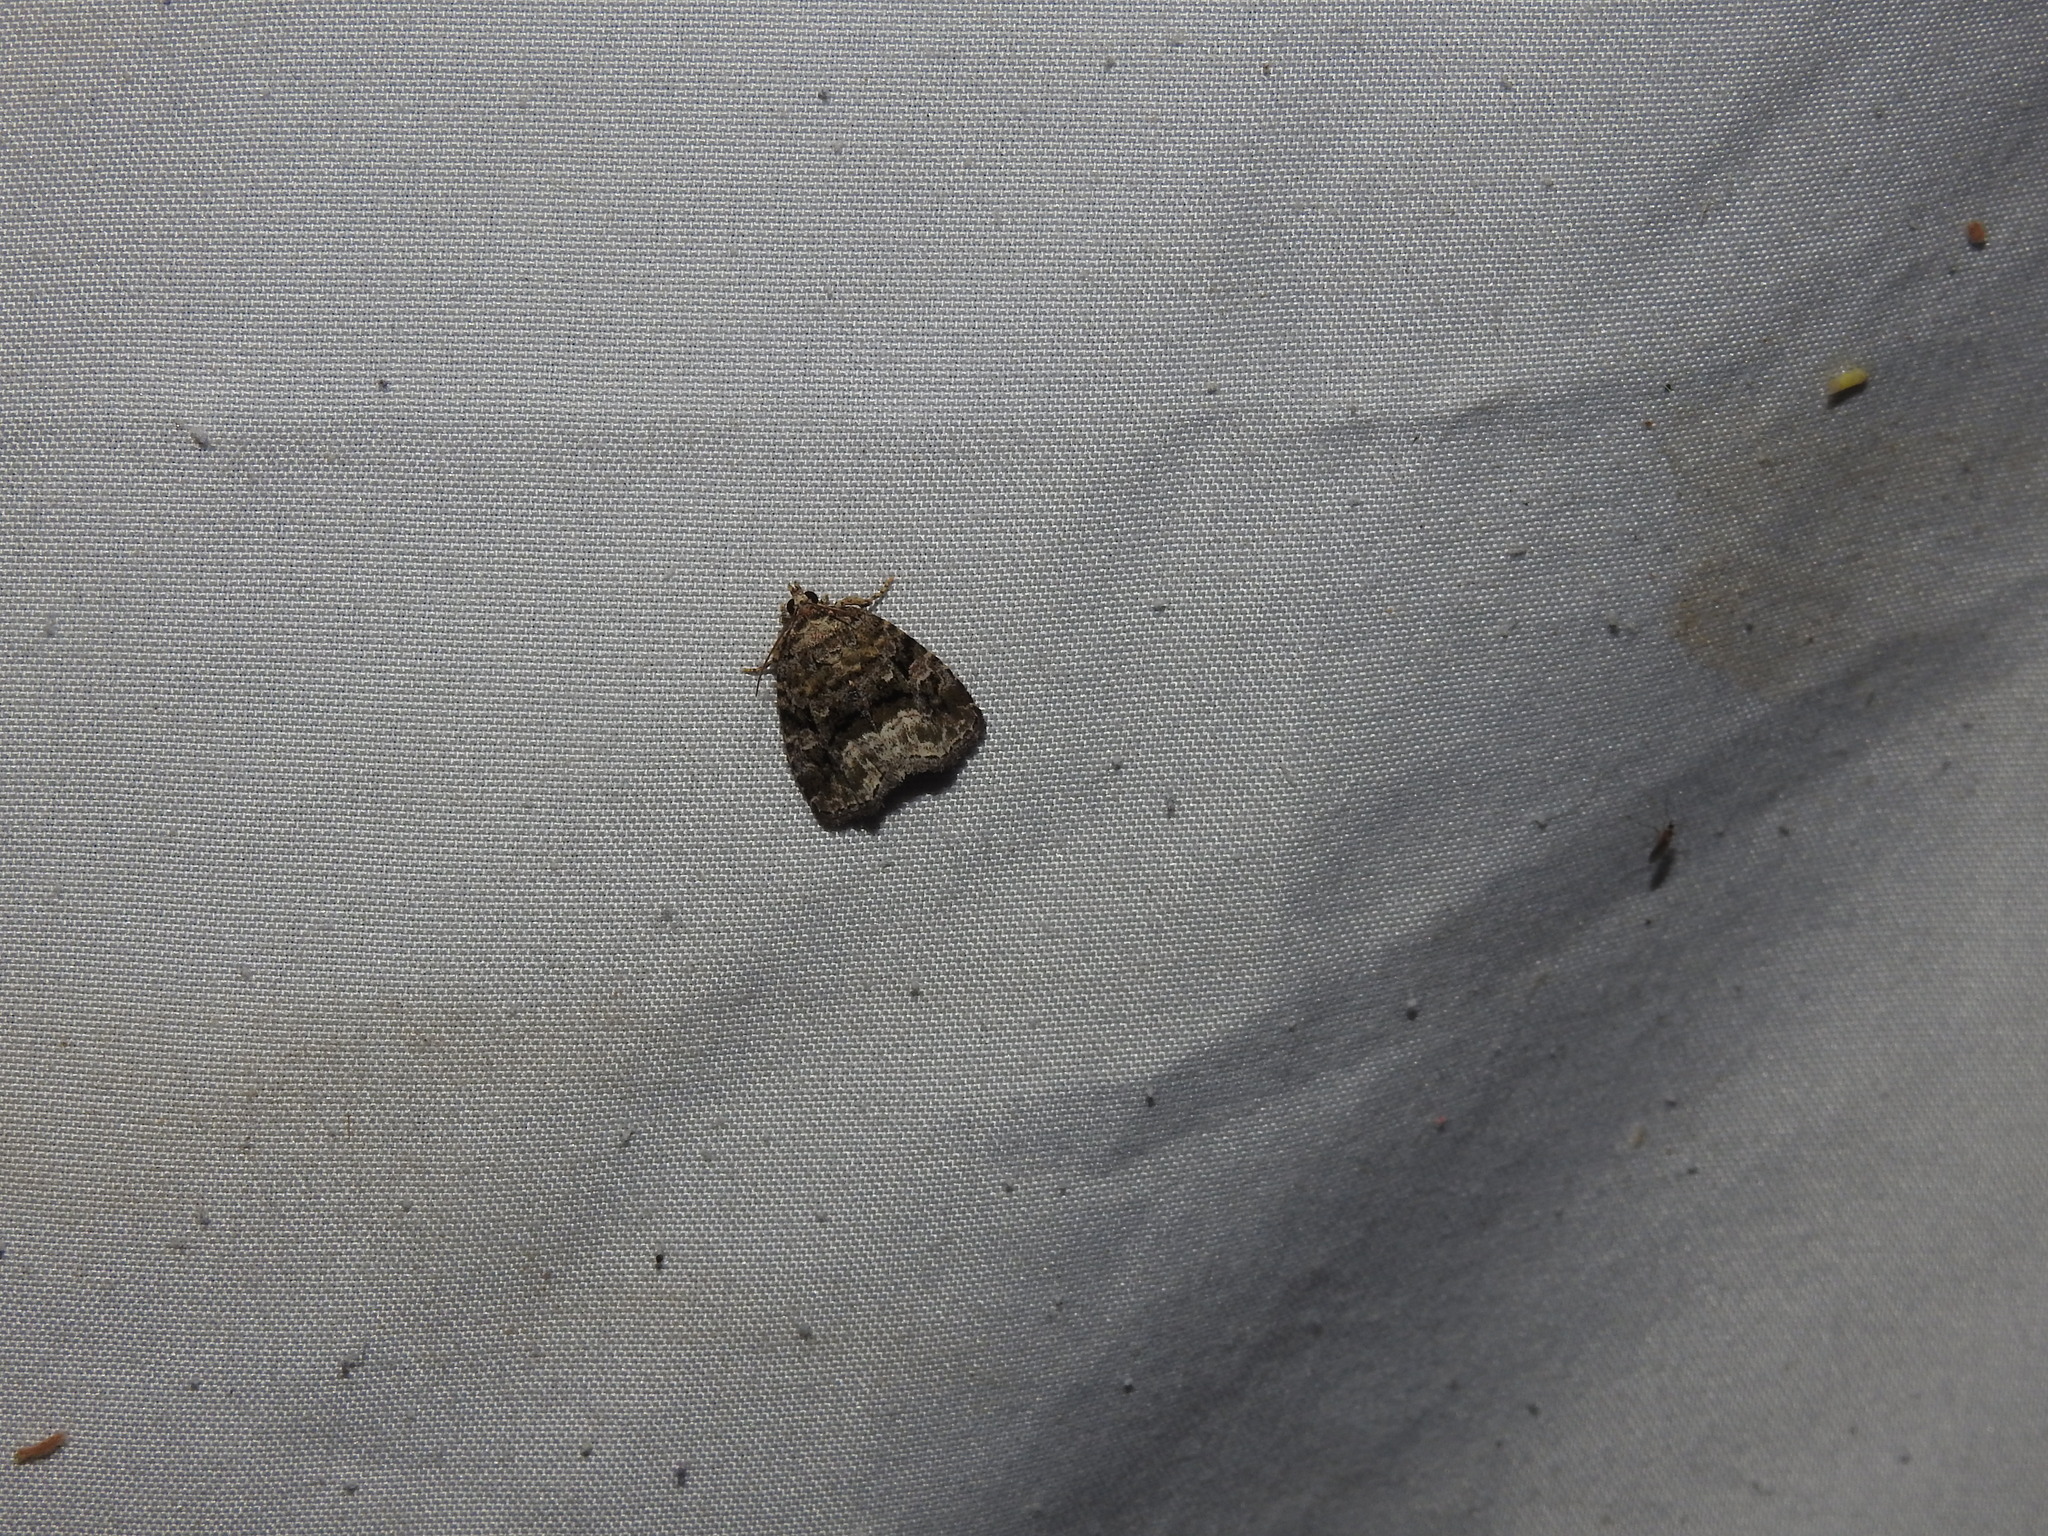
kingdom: Animalia
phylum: Arthropoda
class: Insecta
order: Lepidoptera
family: Noctuidae
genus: Protodeltote
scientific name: Protodeltote muscosula
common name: Large mossy glyph
